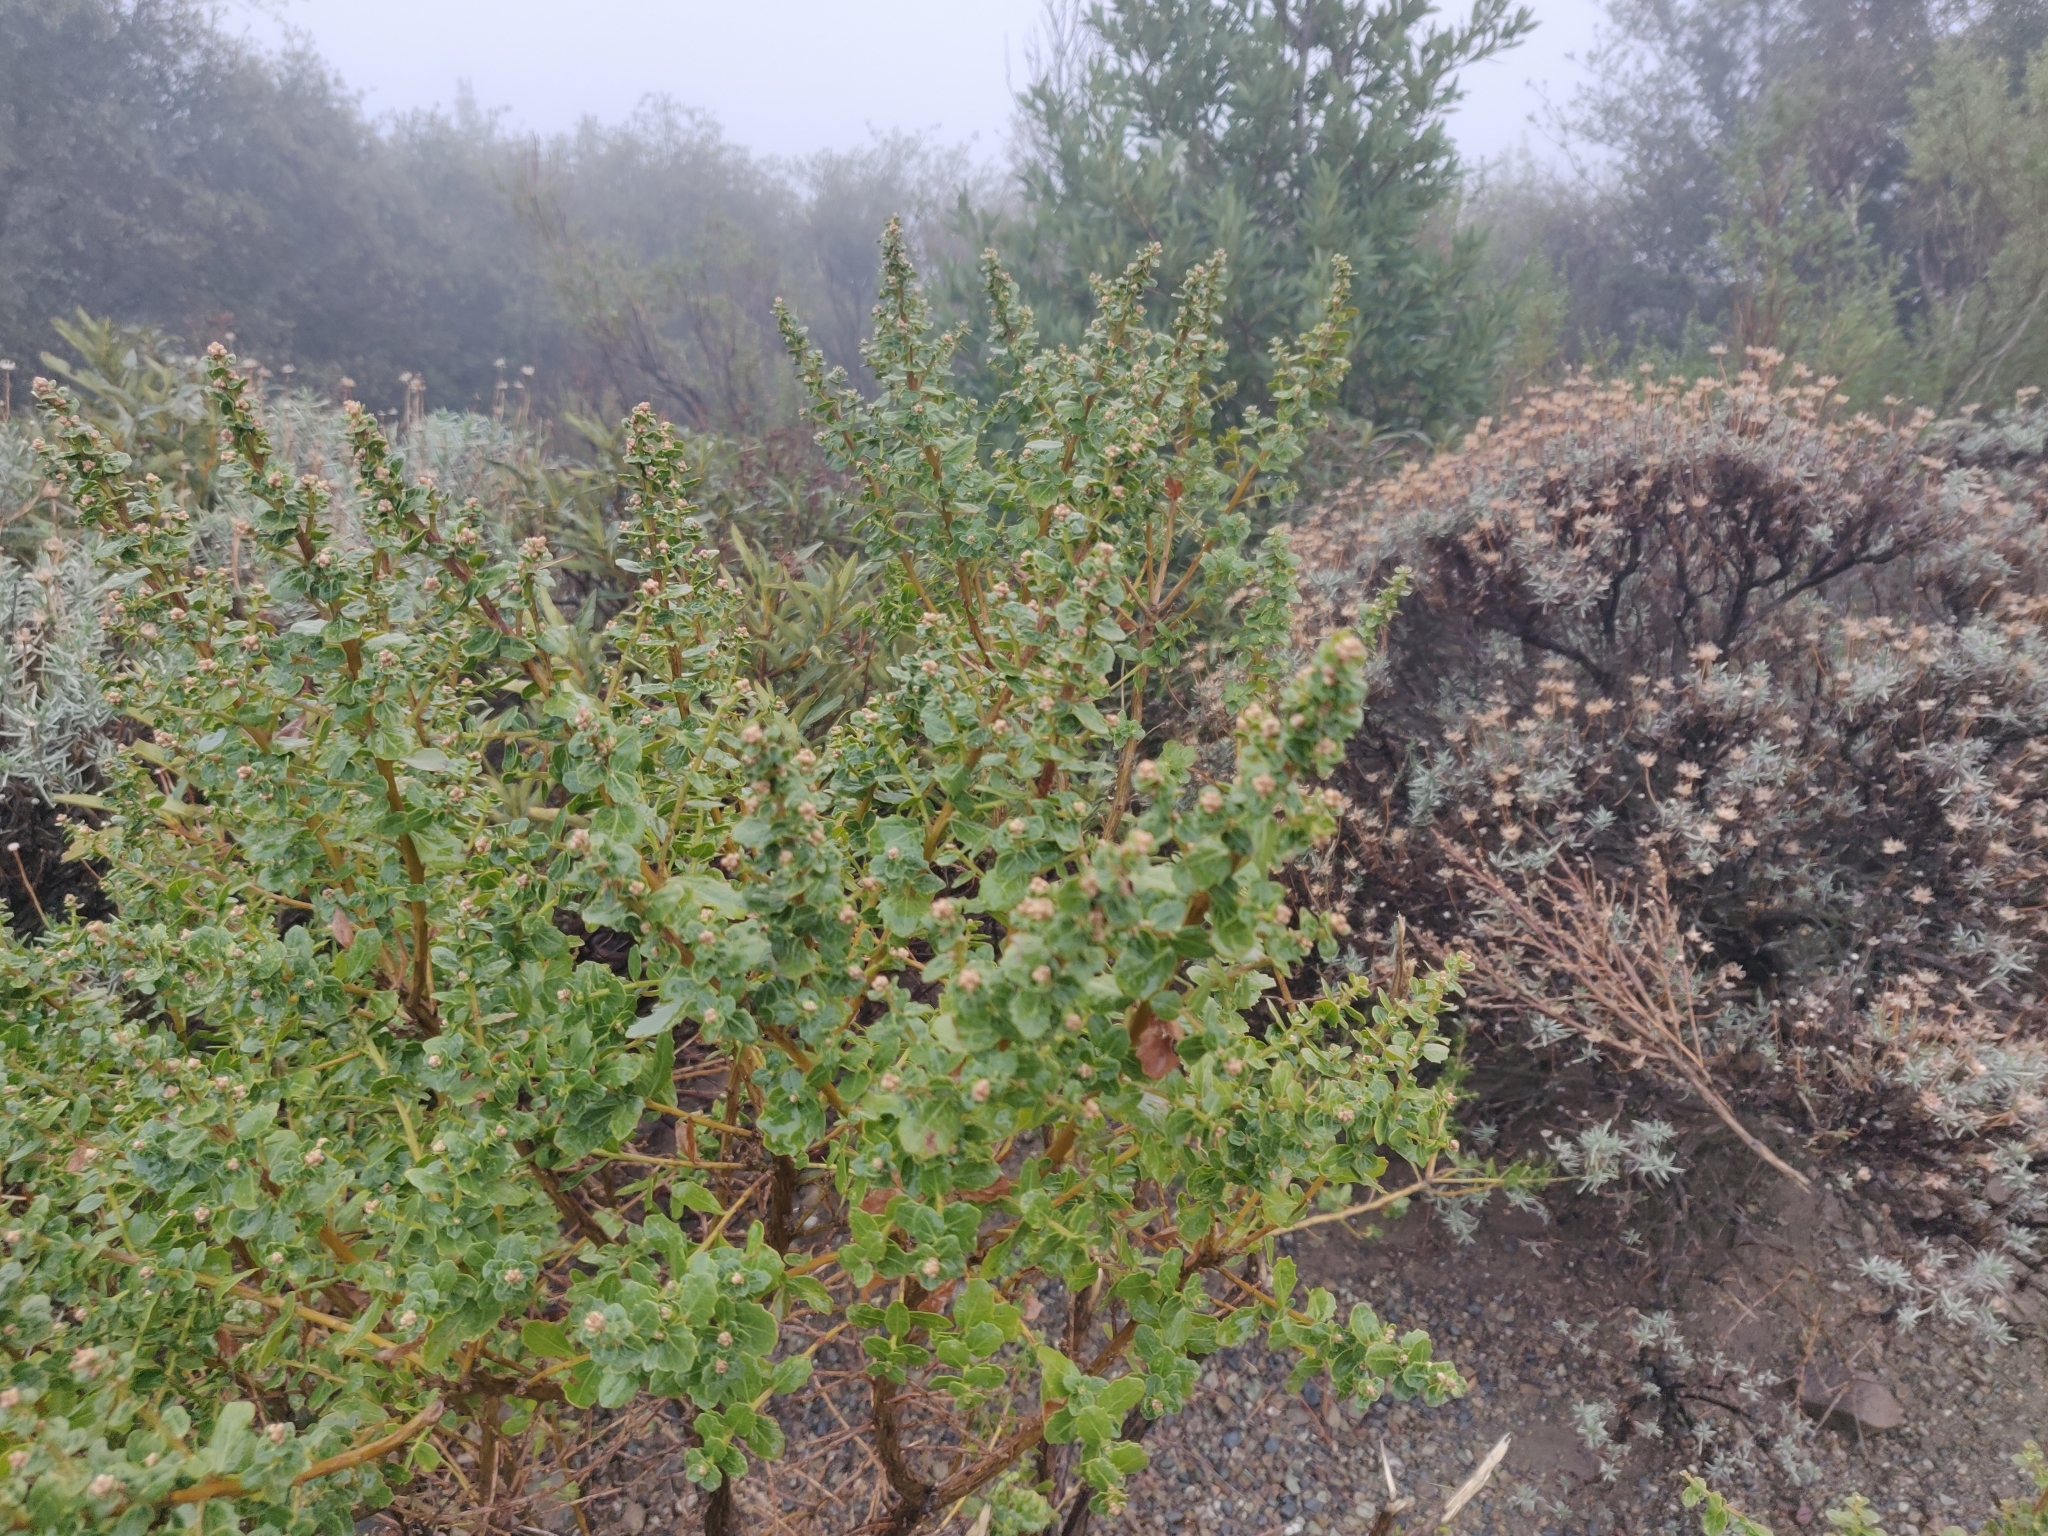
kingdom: Plantae
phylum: Tracheophyta
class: Magnoliopsida
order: Asterales
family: Asteraceae
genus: Baccharis
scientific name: Baccharis pilularis
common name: Coyotebrush
